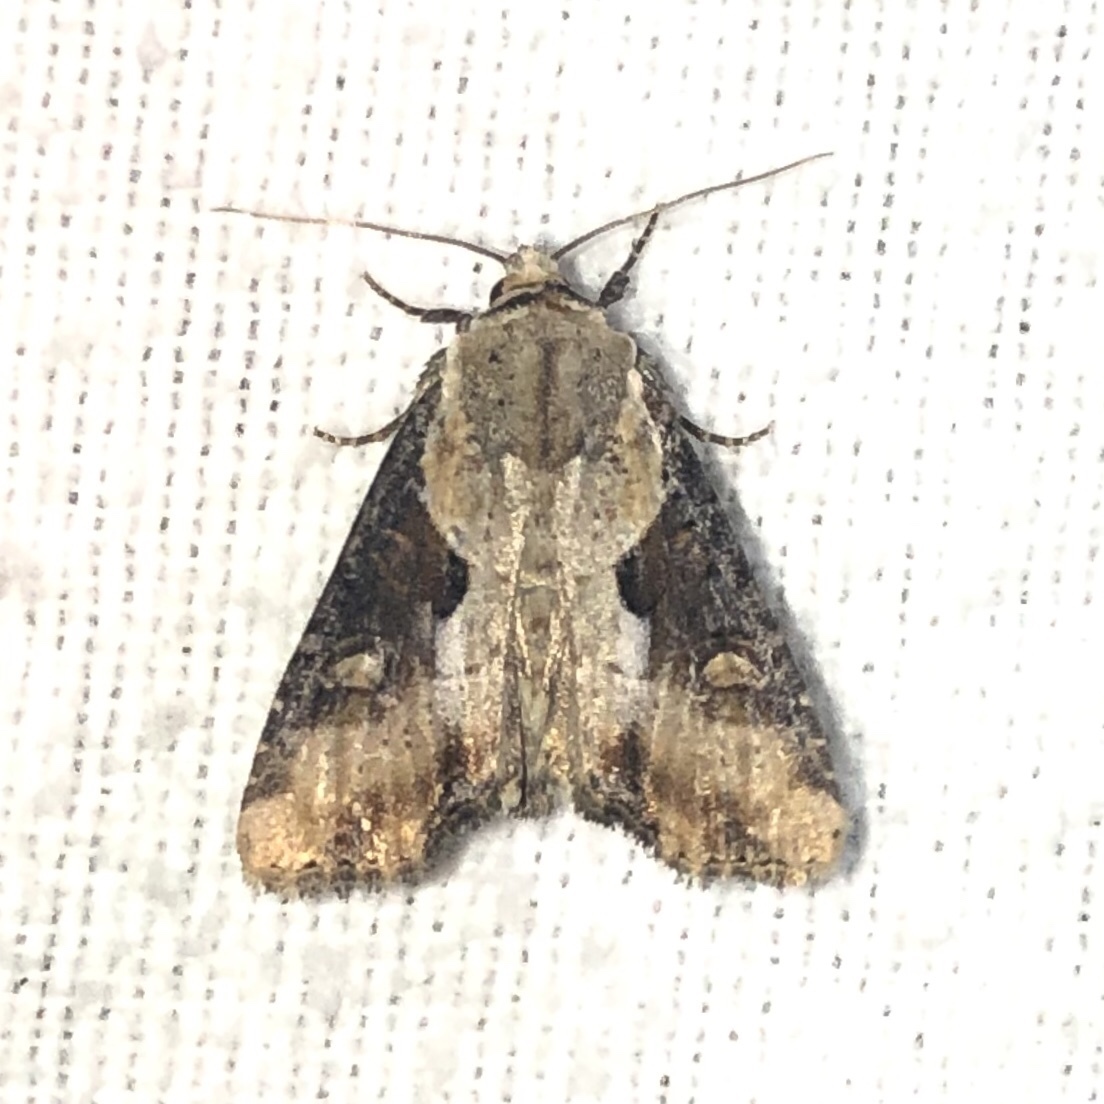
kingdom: Animalia
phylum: Arthropoda
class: Insecta
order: Lepidoptera
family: Noctuidae
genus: Lateroligia
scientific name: Lateroligia ophiogramma
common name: Double lobed
